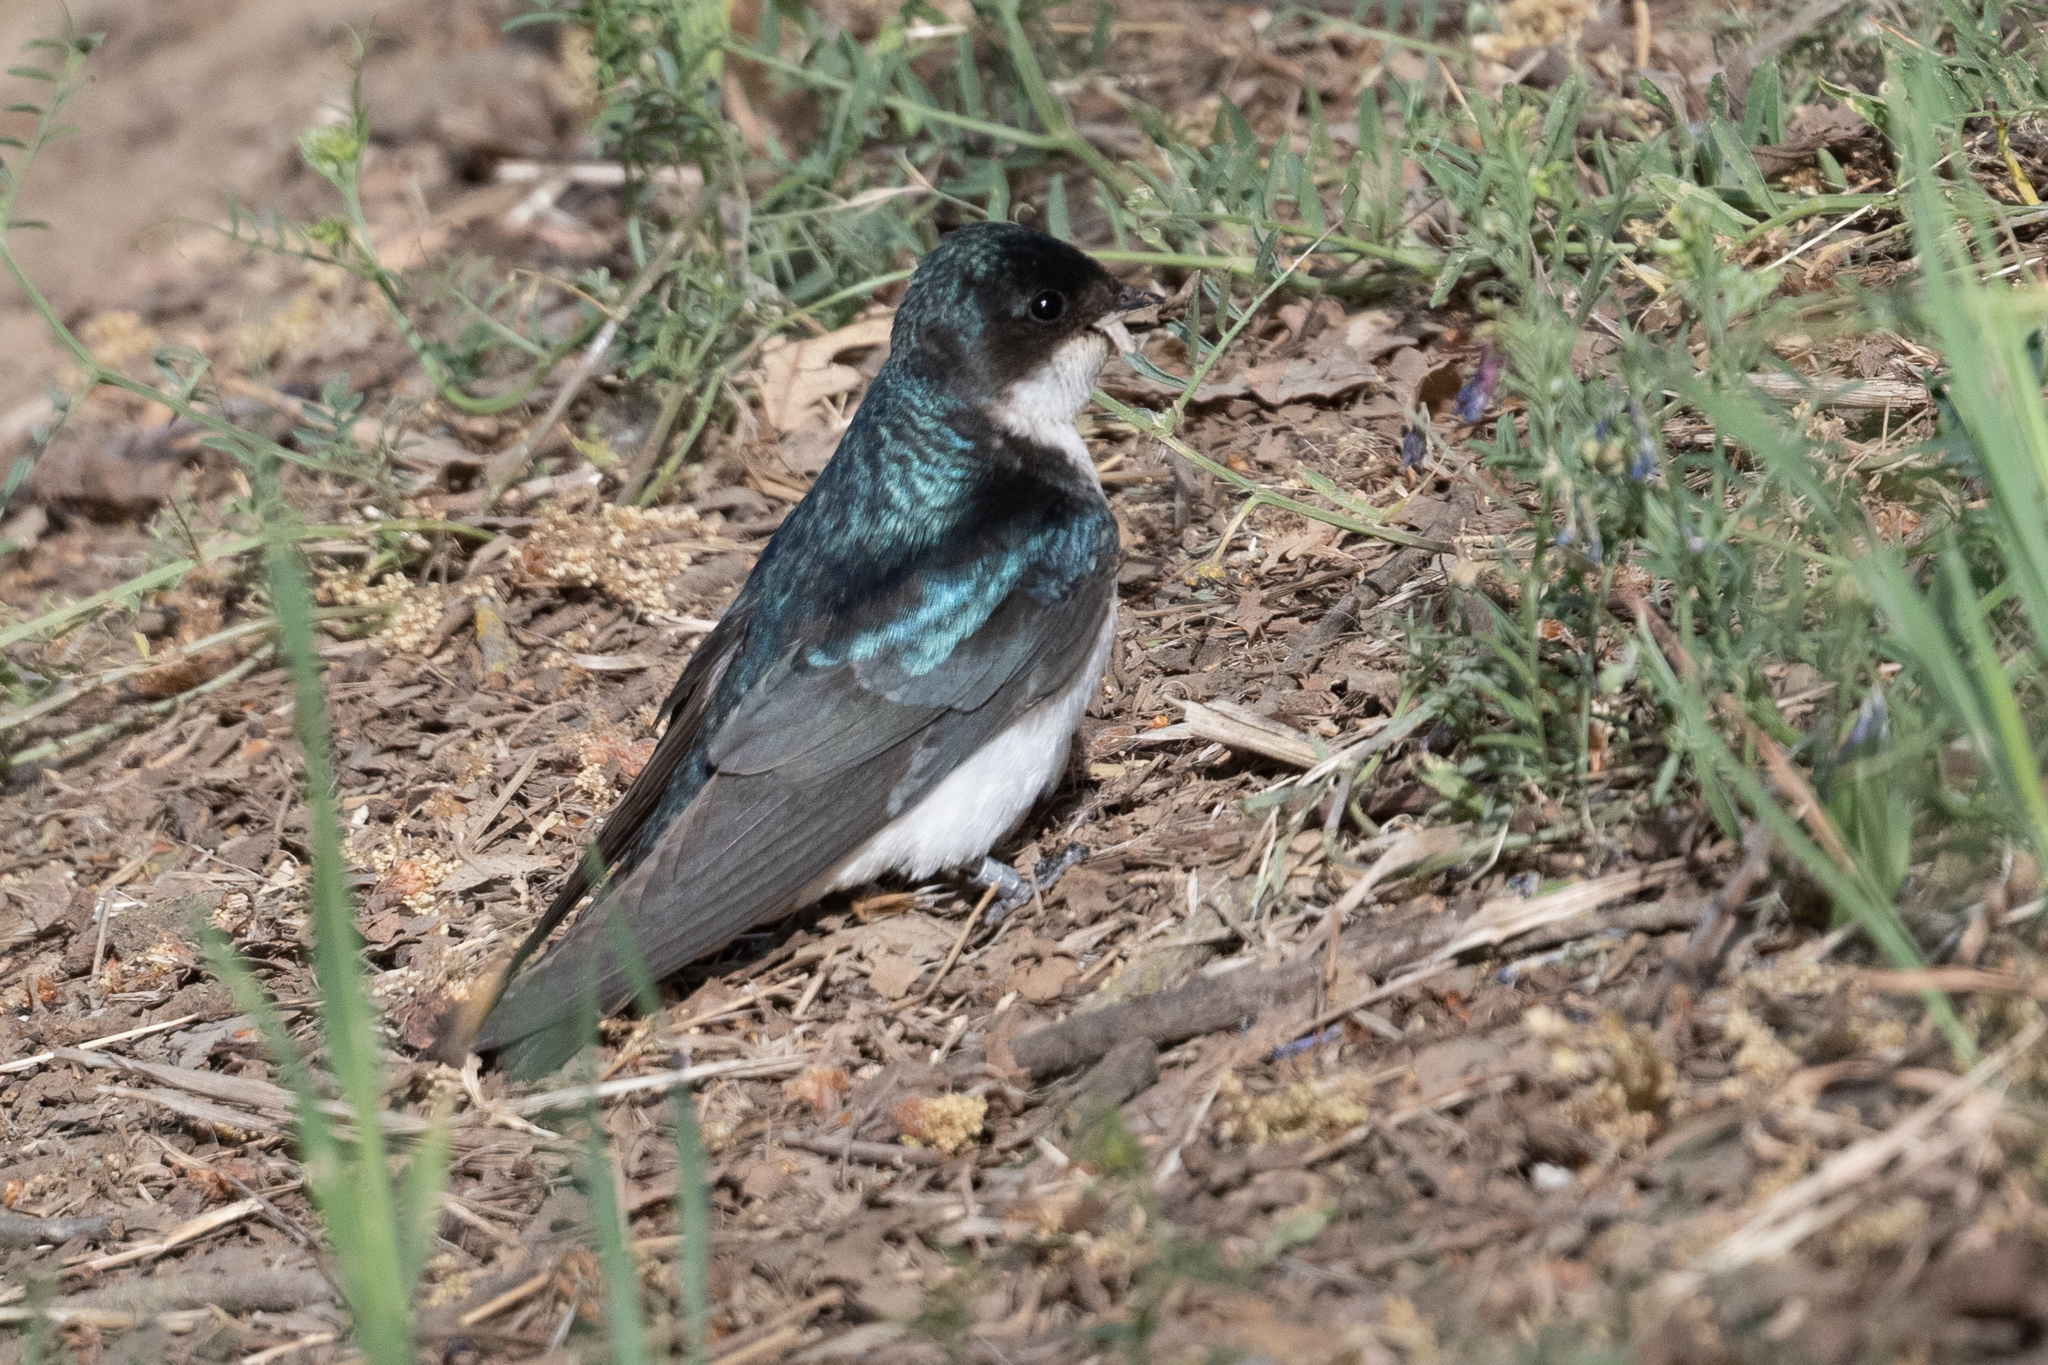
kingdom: Animalia
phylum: Chordata
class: Aves
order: Passeriformes
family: Hirundinidae
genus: Tachycineta
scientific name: Tachycineta bicolor
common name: Tree swallow
